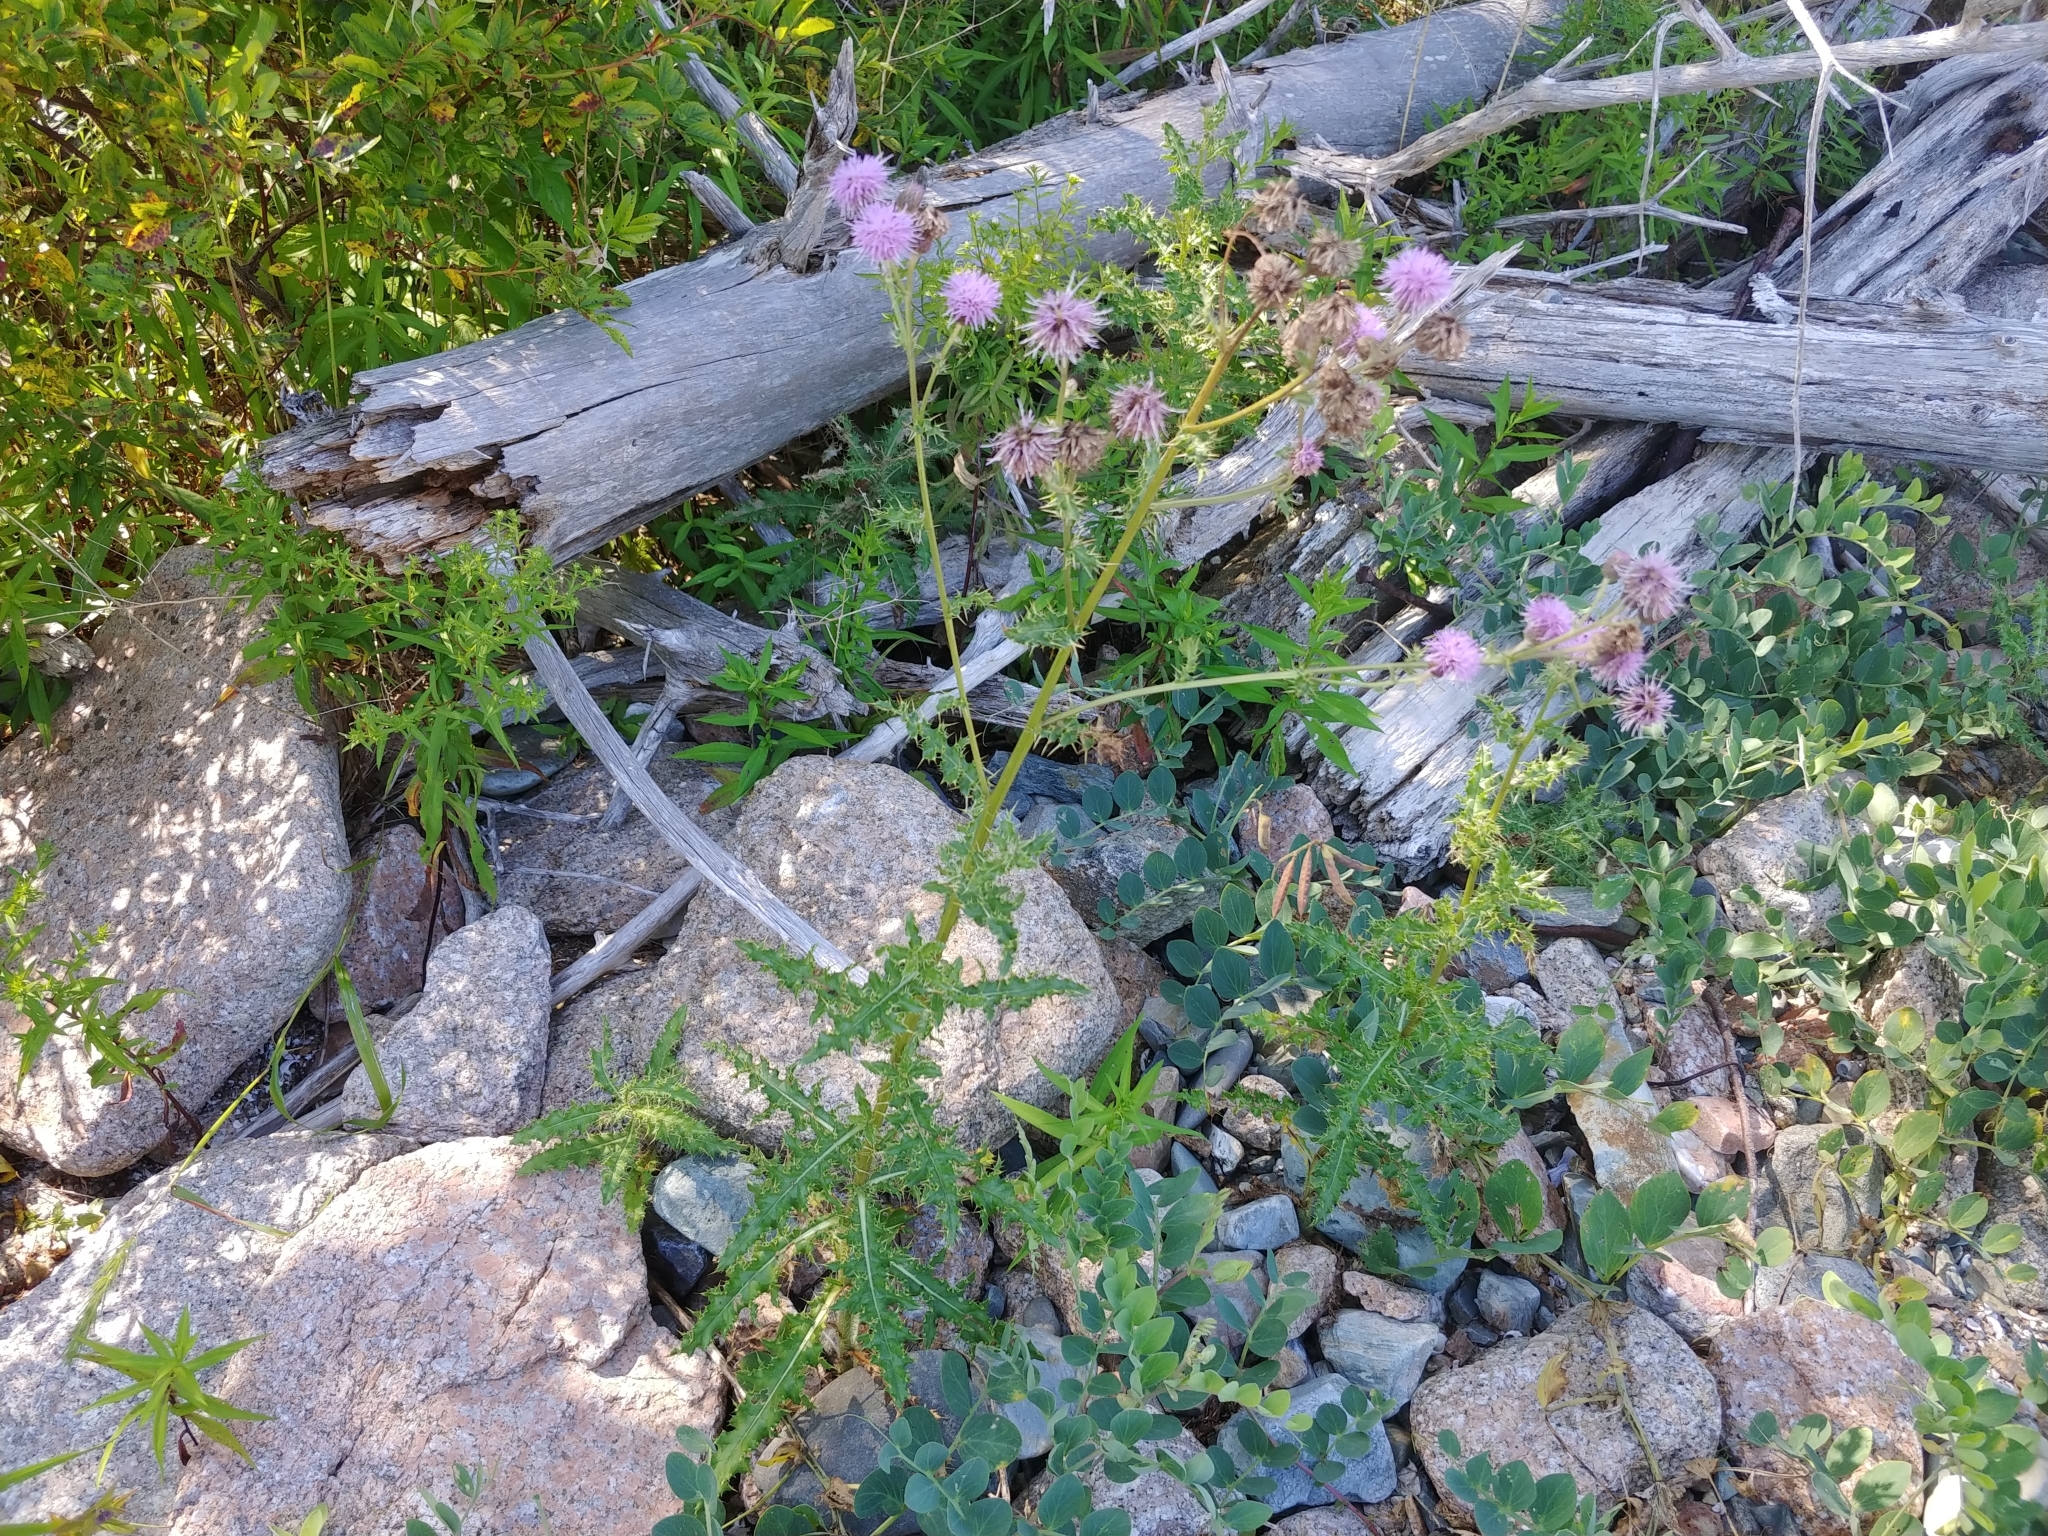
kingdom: Plantae
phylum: Tracheophyta
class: Magnoliopsida
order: Asterales
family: Asteraceae
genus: Cirsium
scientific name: Cirsium arvense
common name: Creeping thistle
